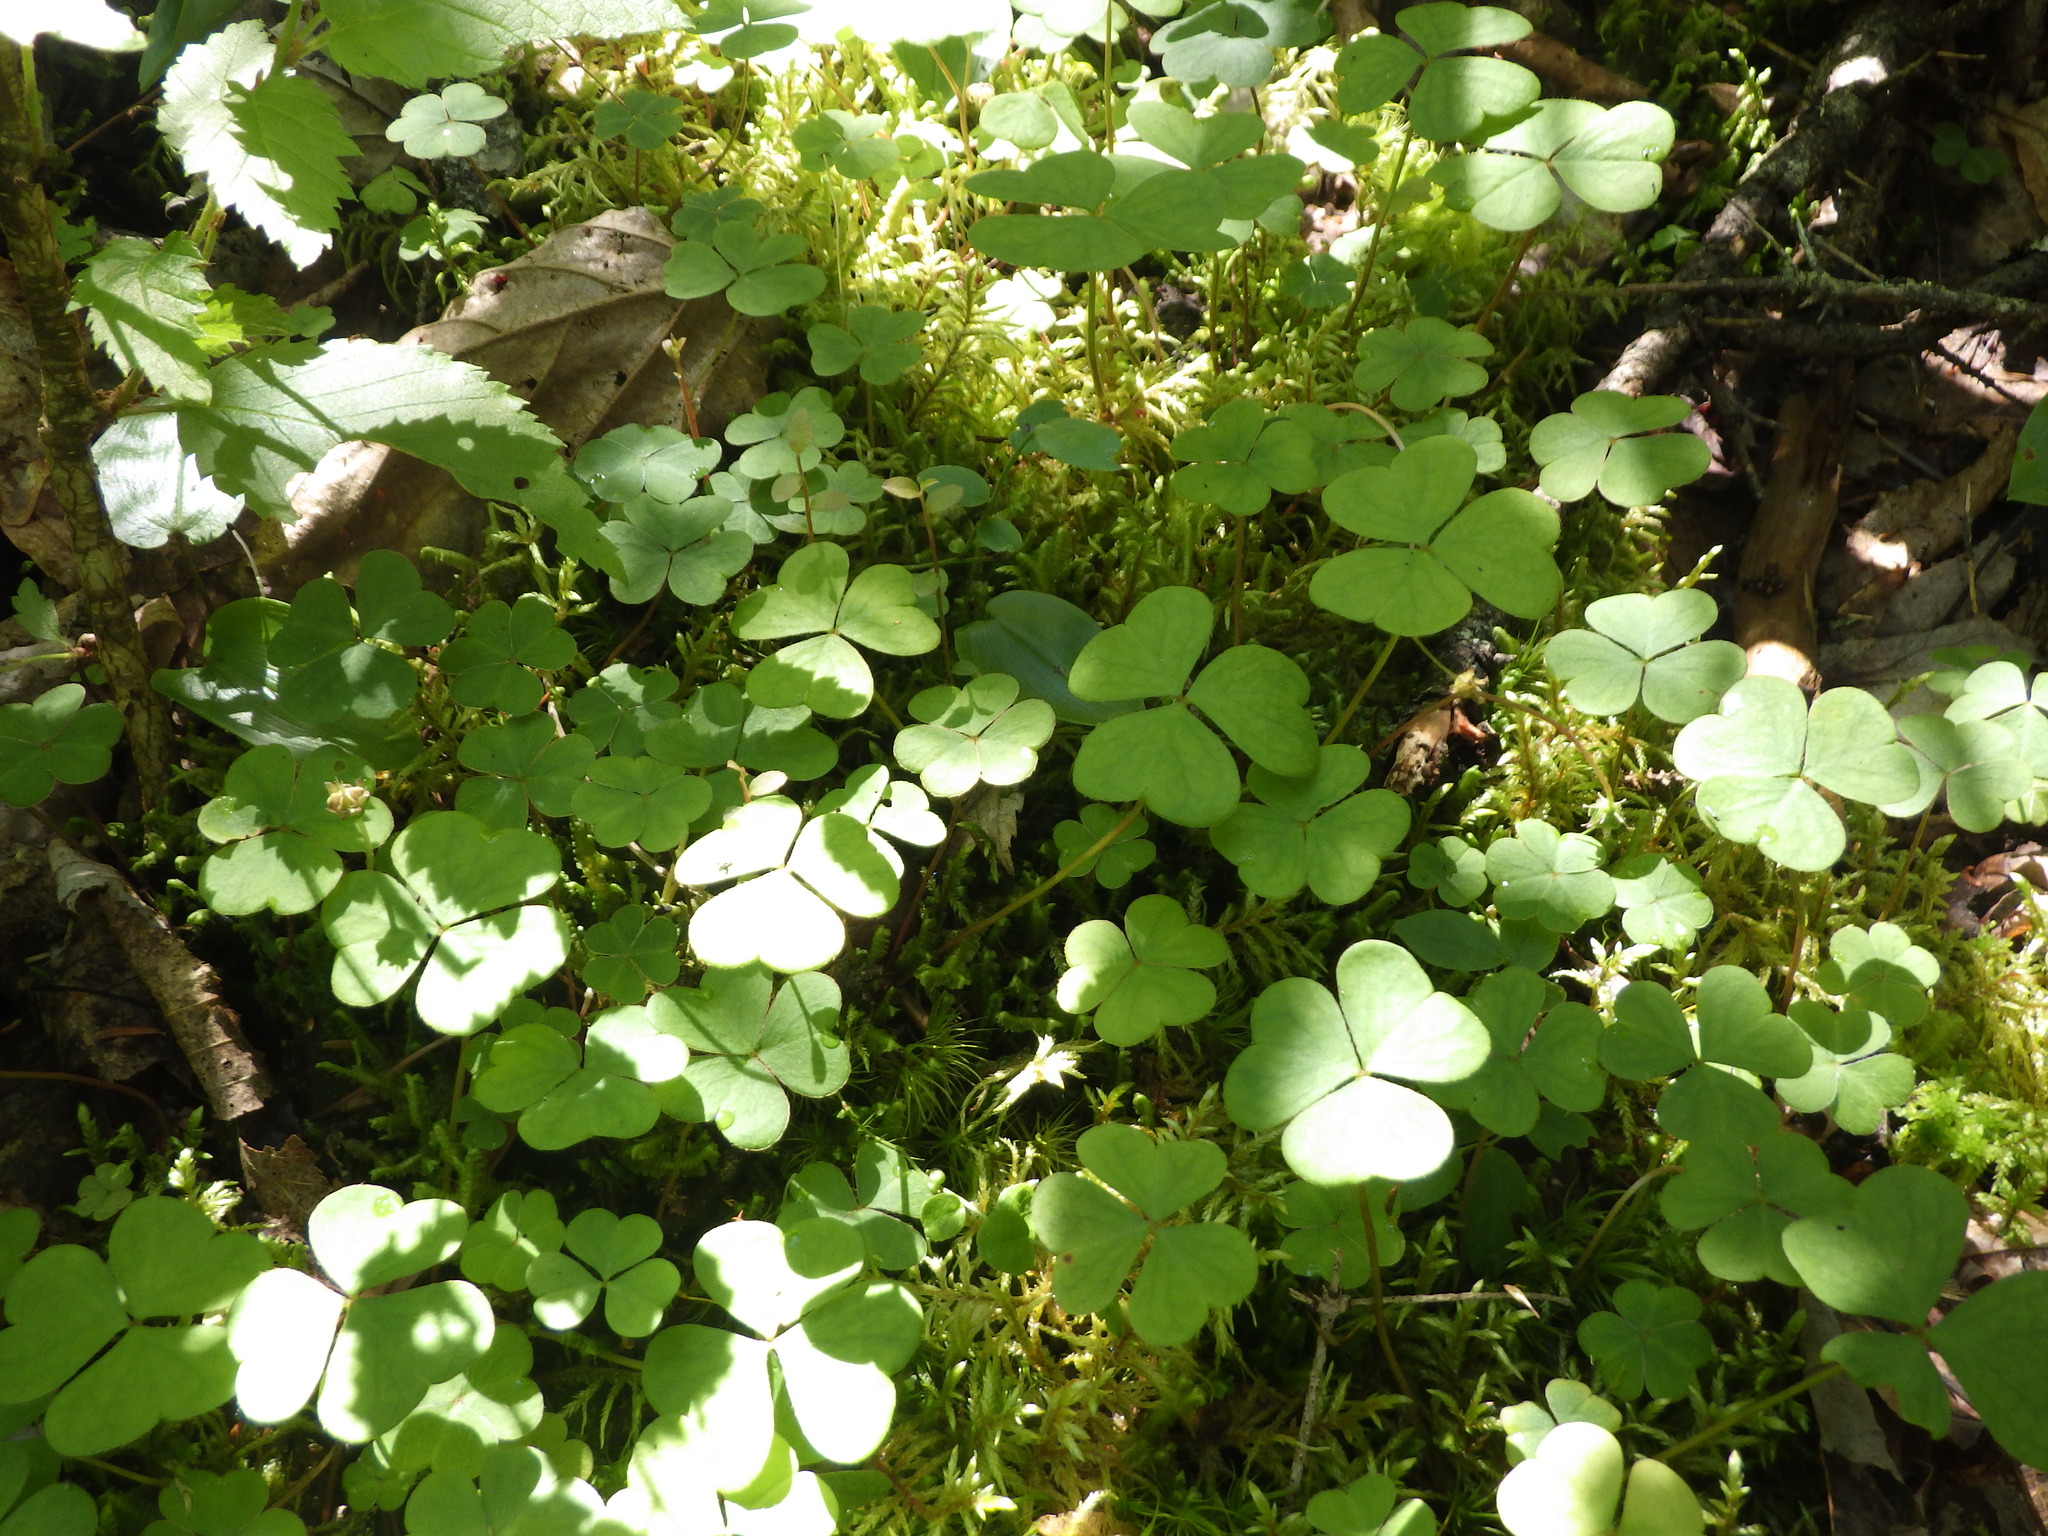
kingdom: Plantae
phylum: Tracheophyta
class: Magnoliopsida
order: Oxalidales
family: Oxalidaceae
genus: Oxalis
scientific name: Oxalis montana
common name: American wood-sorrel
